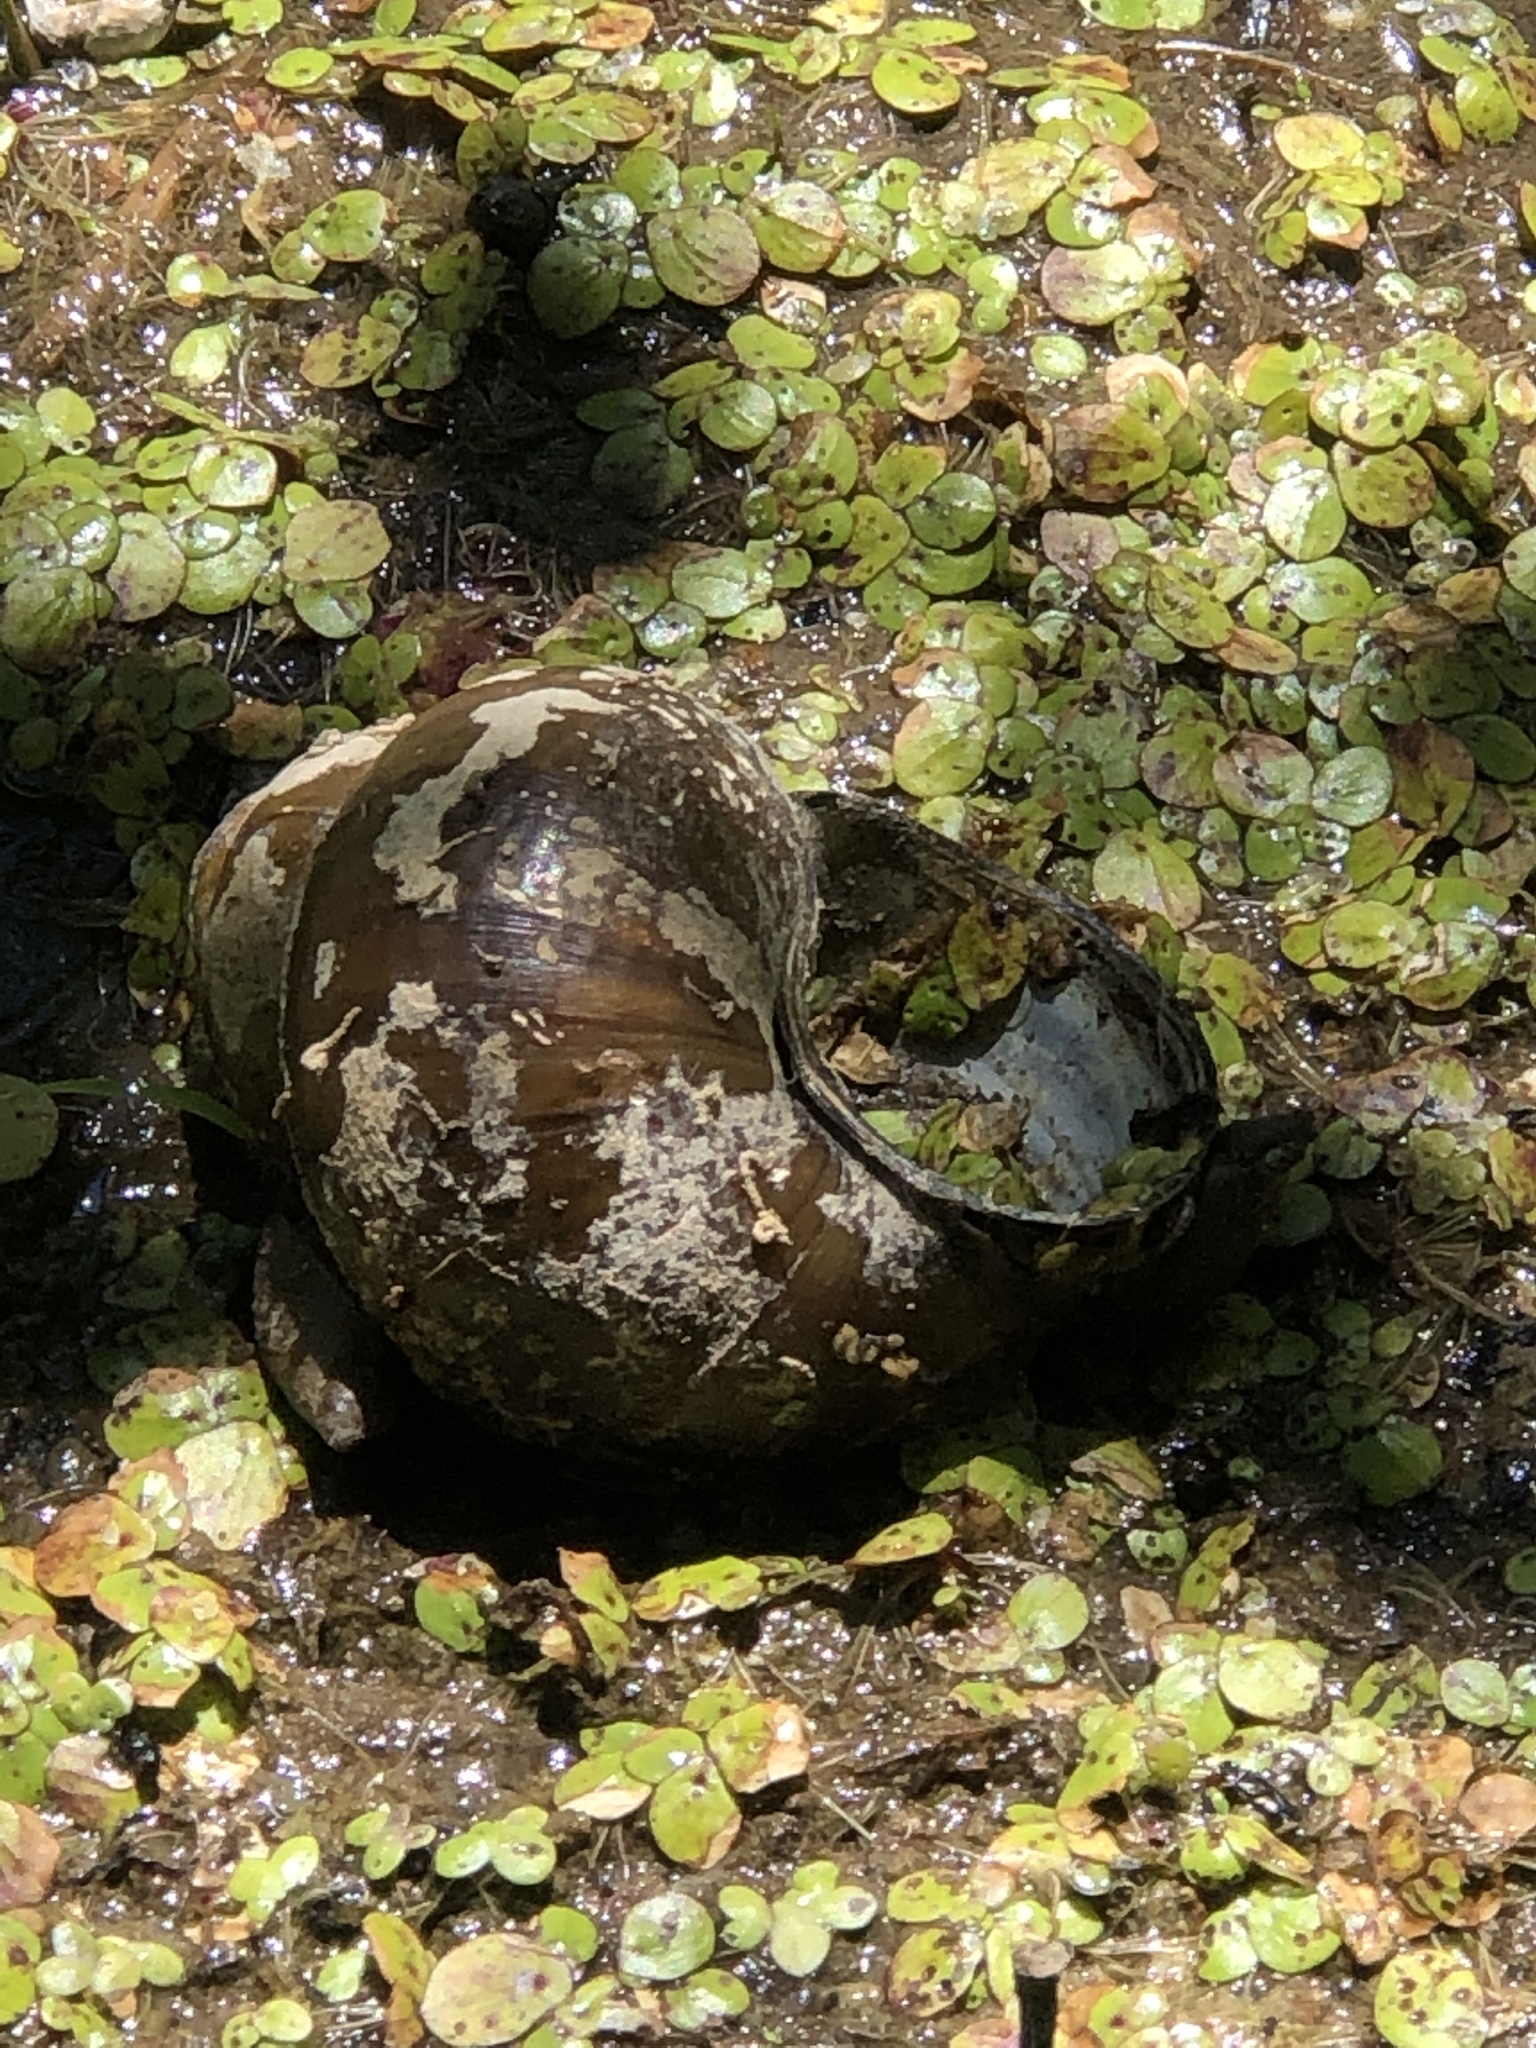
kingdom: Animalia
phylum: Mollusca
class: Gastropoda
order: Architaenioglossa
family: Viviparidae
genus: Cipangopaludina
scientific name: Cipangopaludina chinensis
